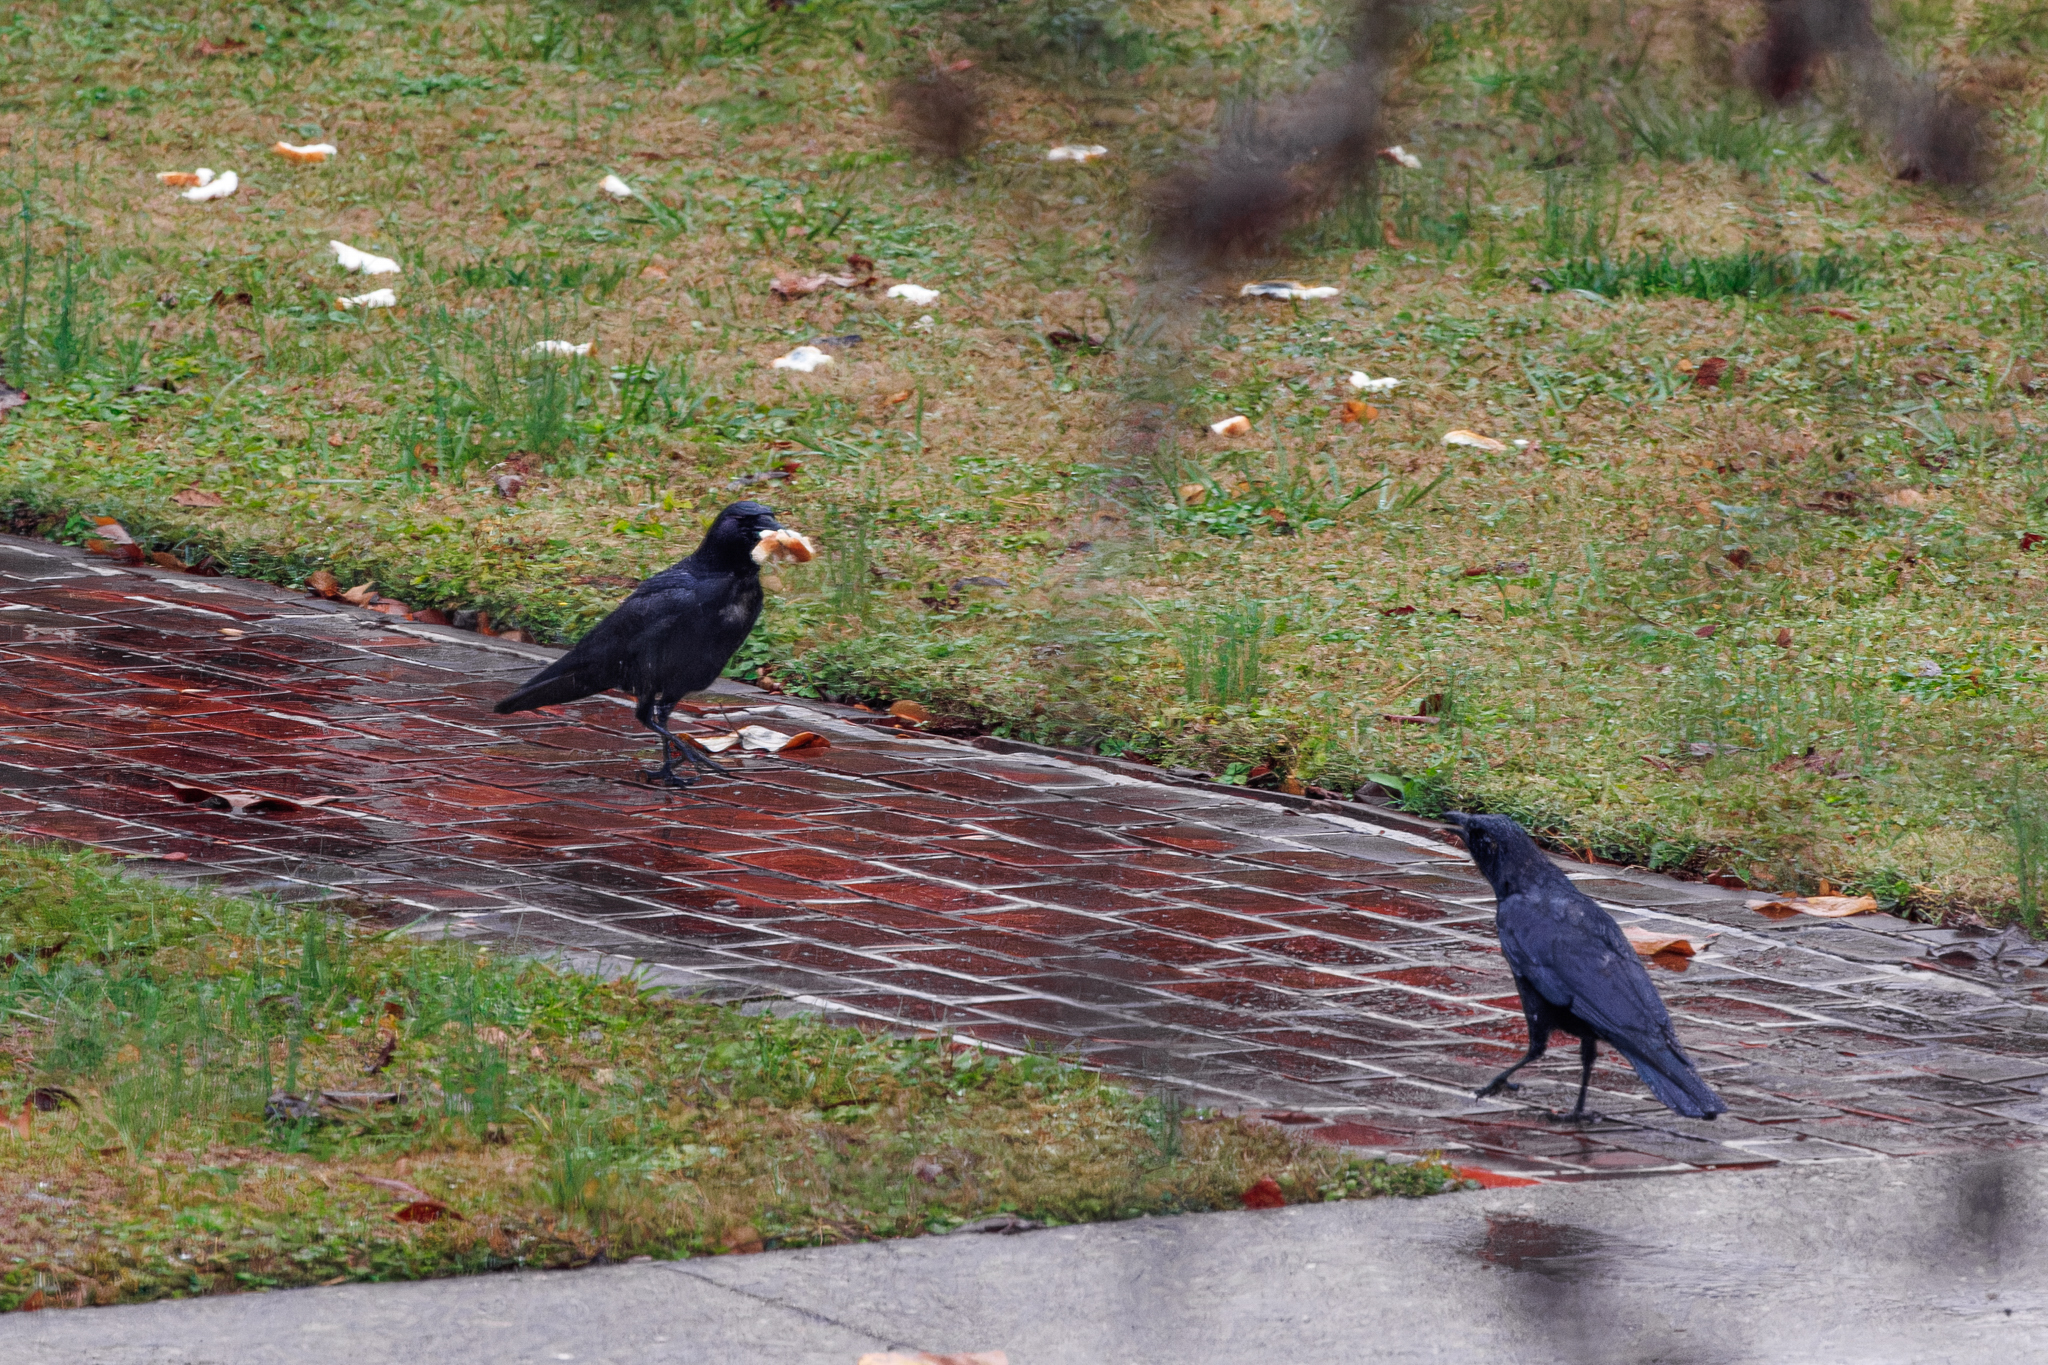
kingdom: Animalia
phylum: Chordata
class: Aves
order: Passeriformes
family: Corvidae
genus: Corvus
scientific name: Corvus brachyrhynchos
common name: American crow
